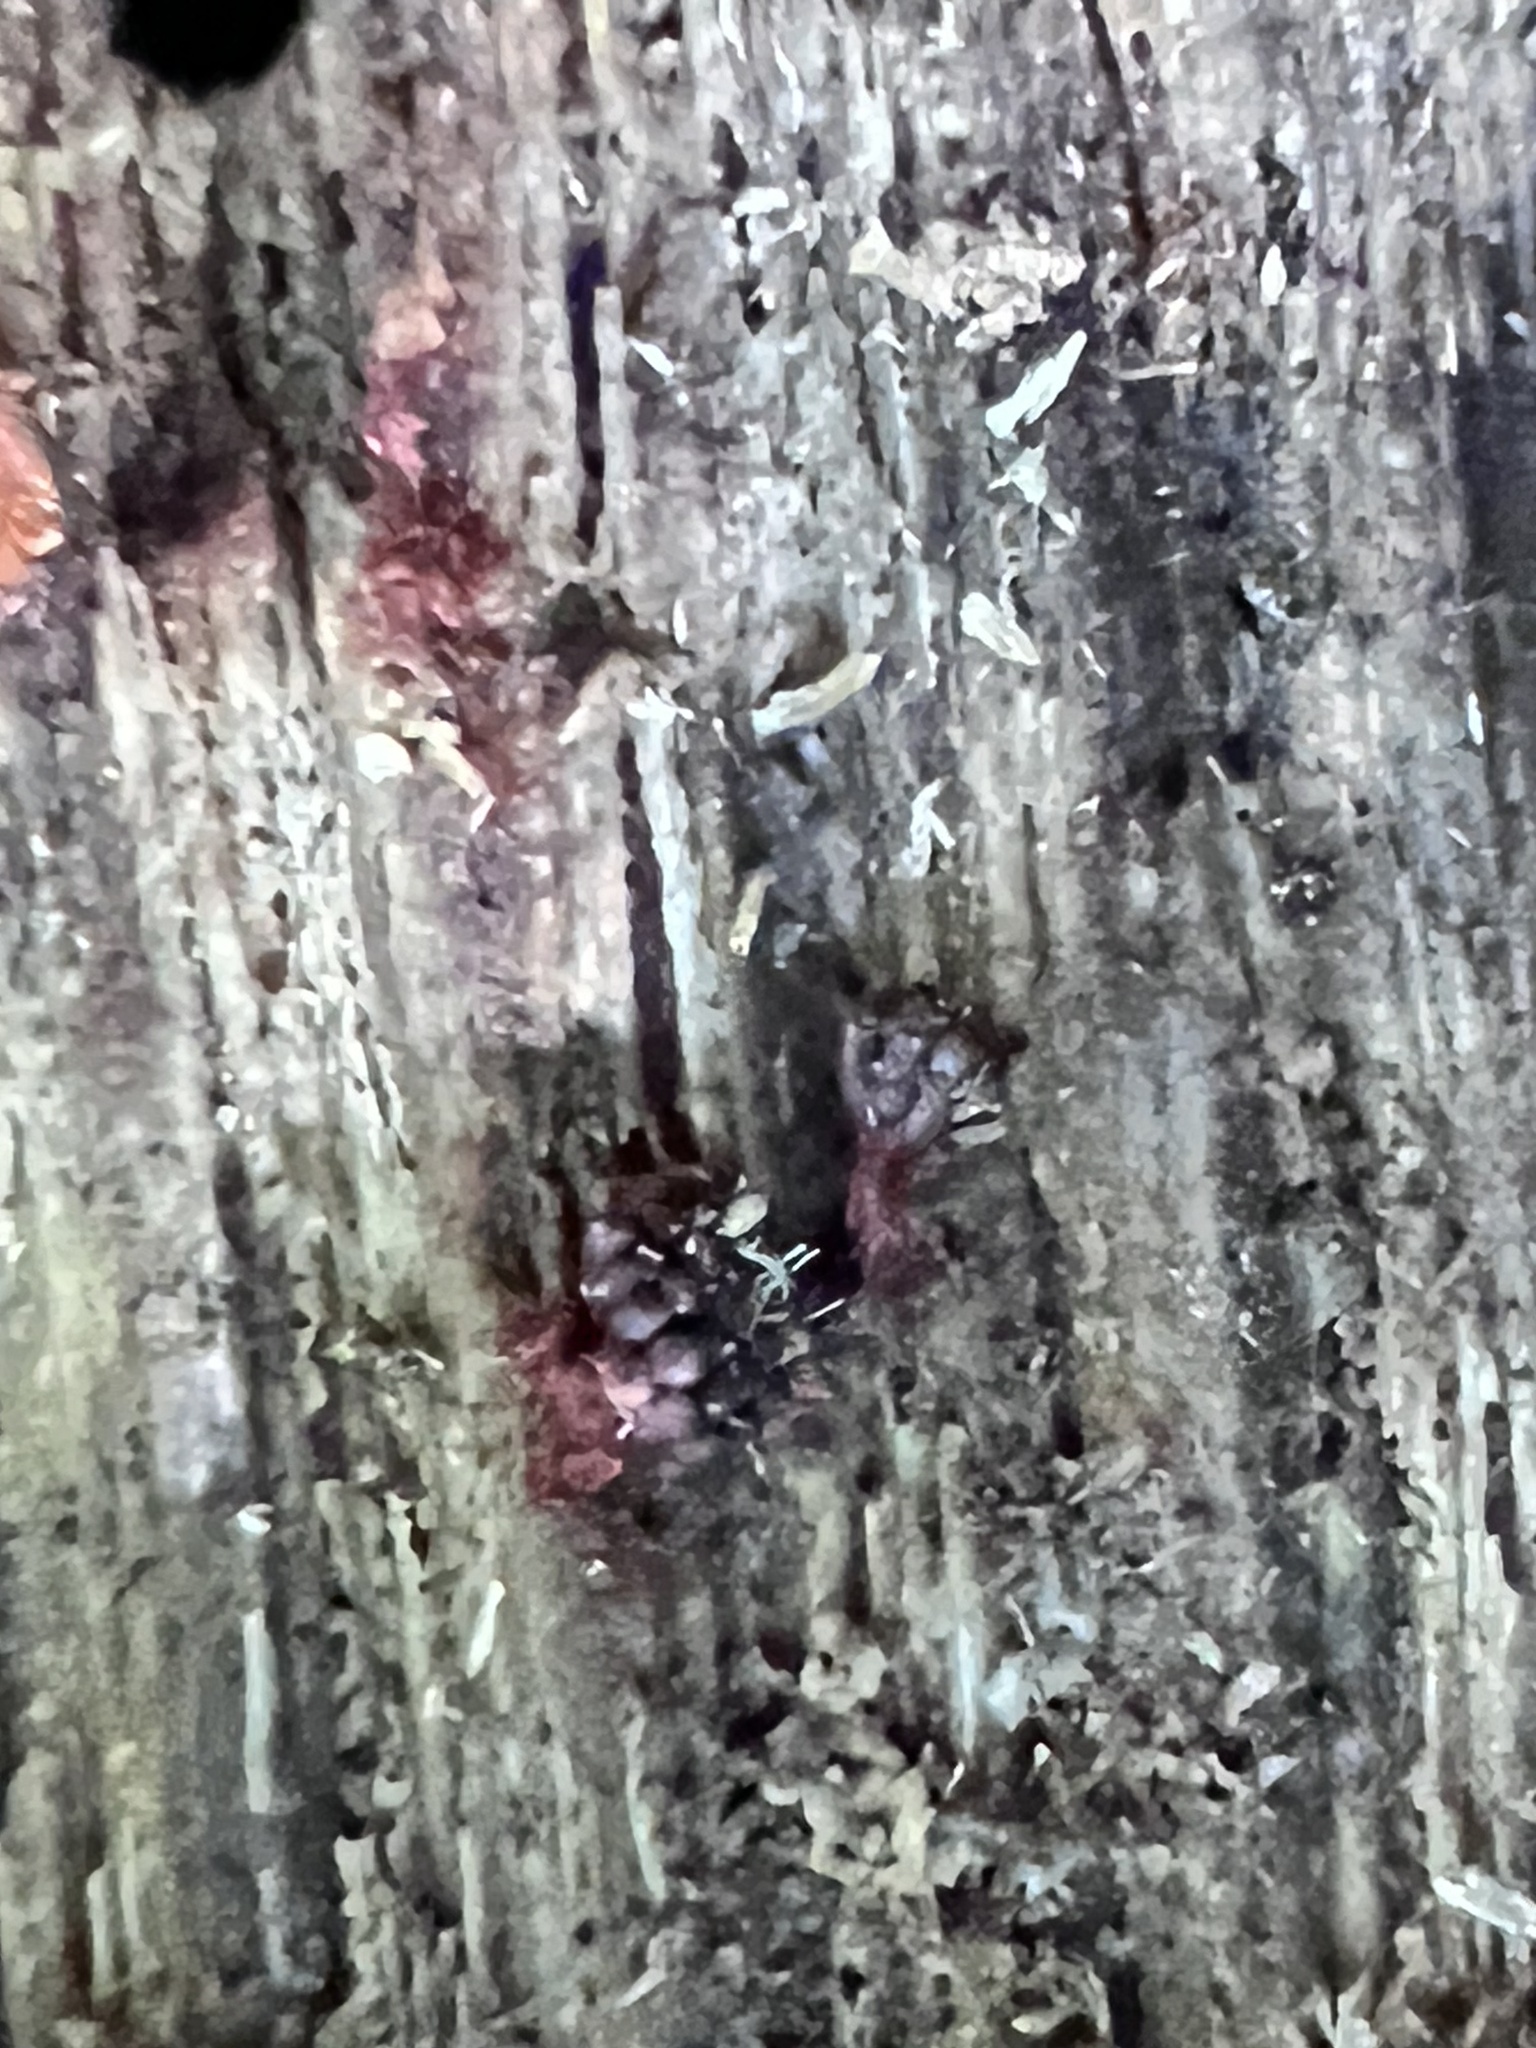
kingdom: Protozoa
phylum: Mycetozoa
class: Myxomycetes
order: Trichiales
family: Trichiaceae
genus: Metatrichia
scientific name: Metatrichia vesparia
